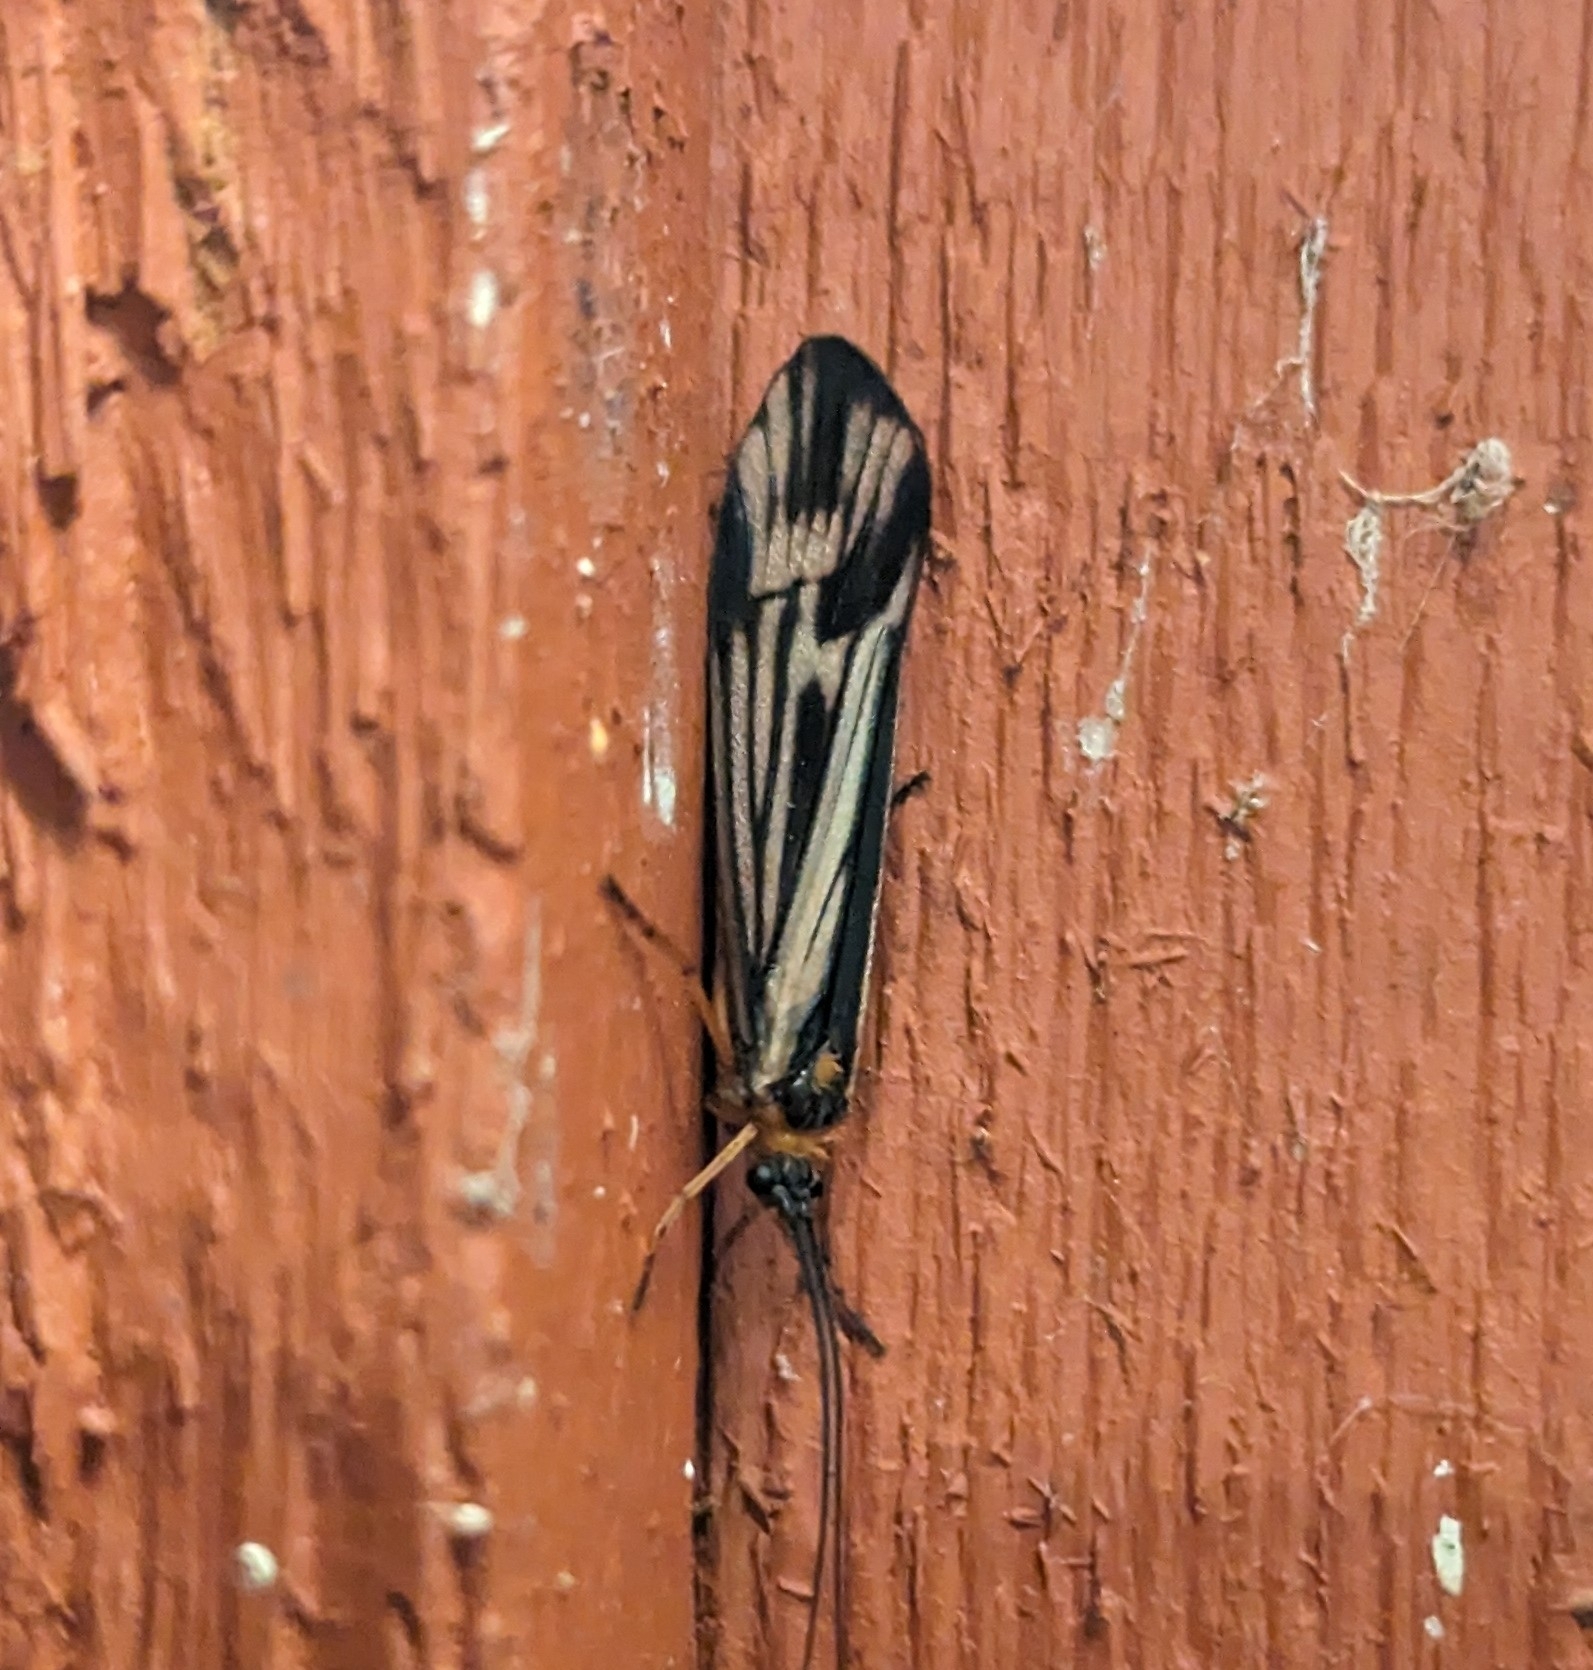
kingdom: Animalia
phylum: Arthropoda
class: Insecta
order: Trichoptera
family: Limnephilidae
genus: Halesochila
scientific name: Halesochila taylori
